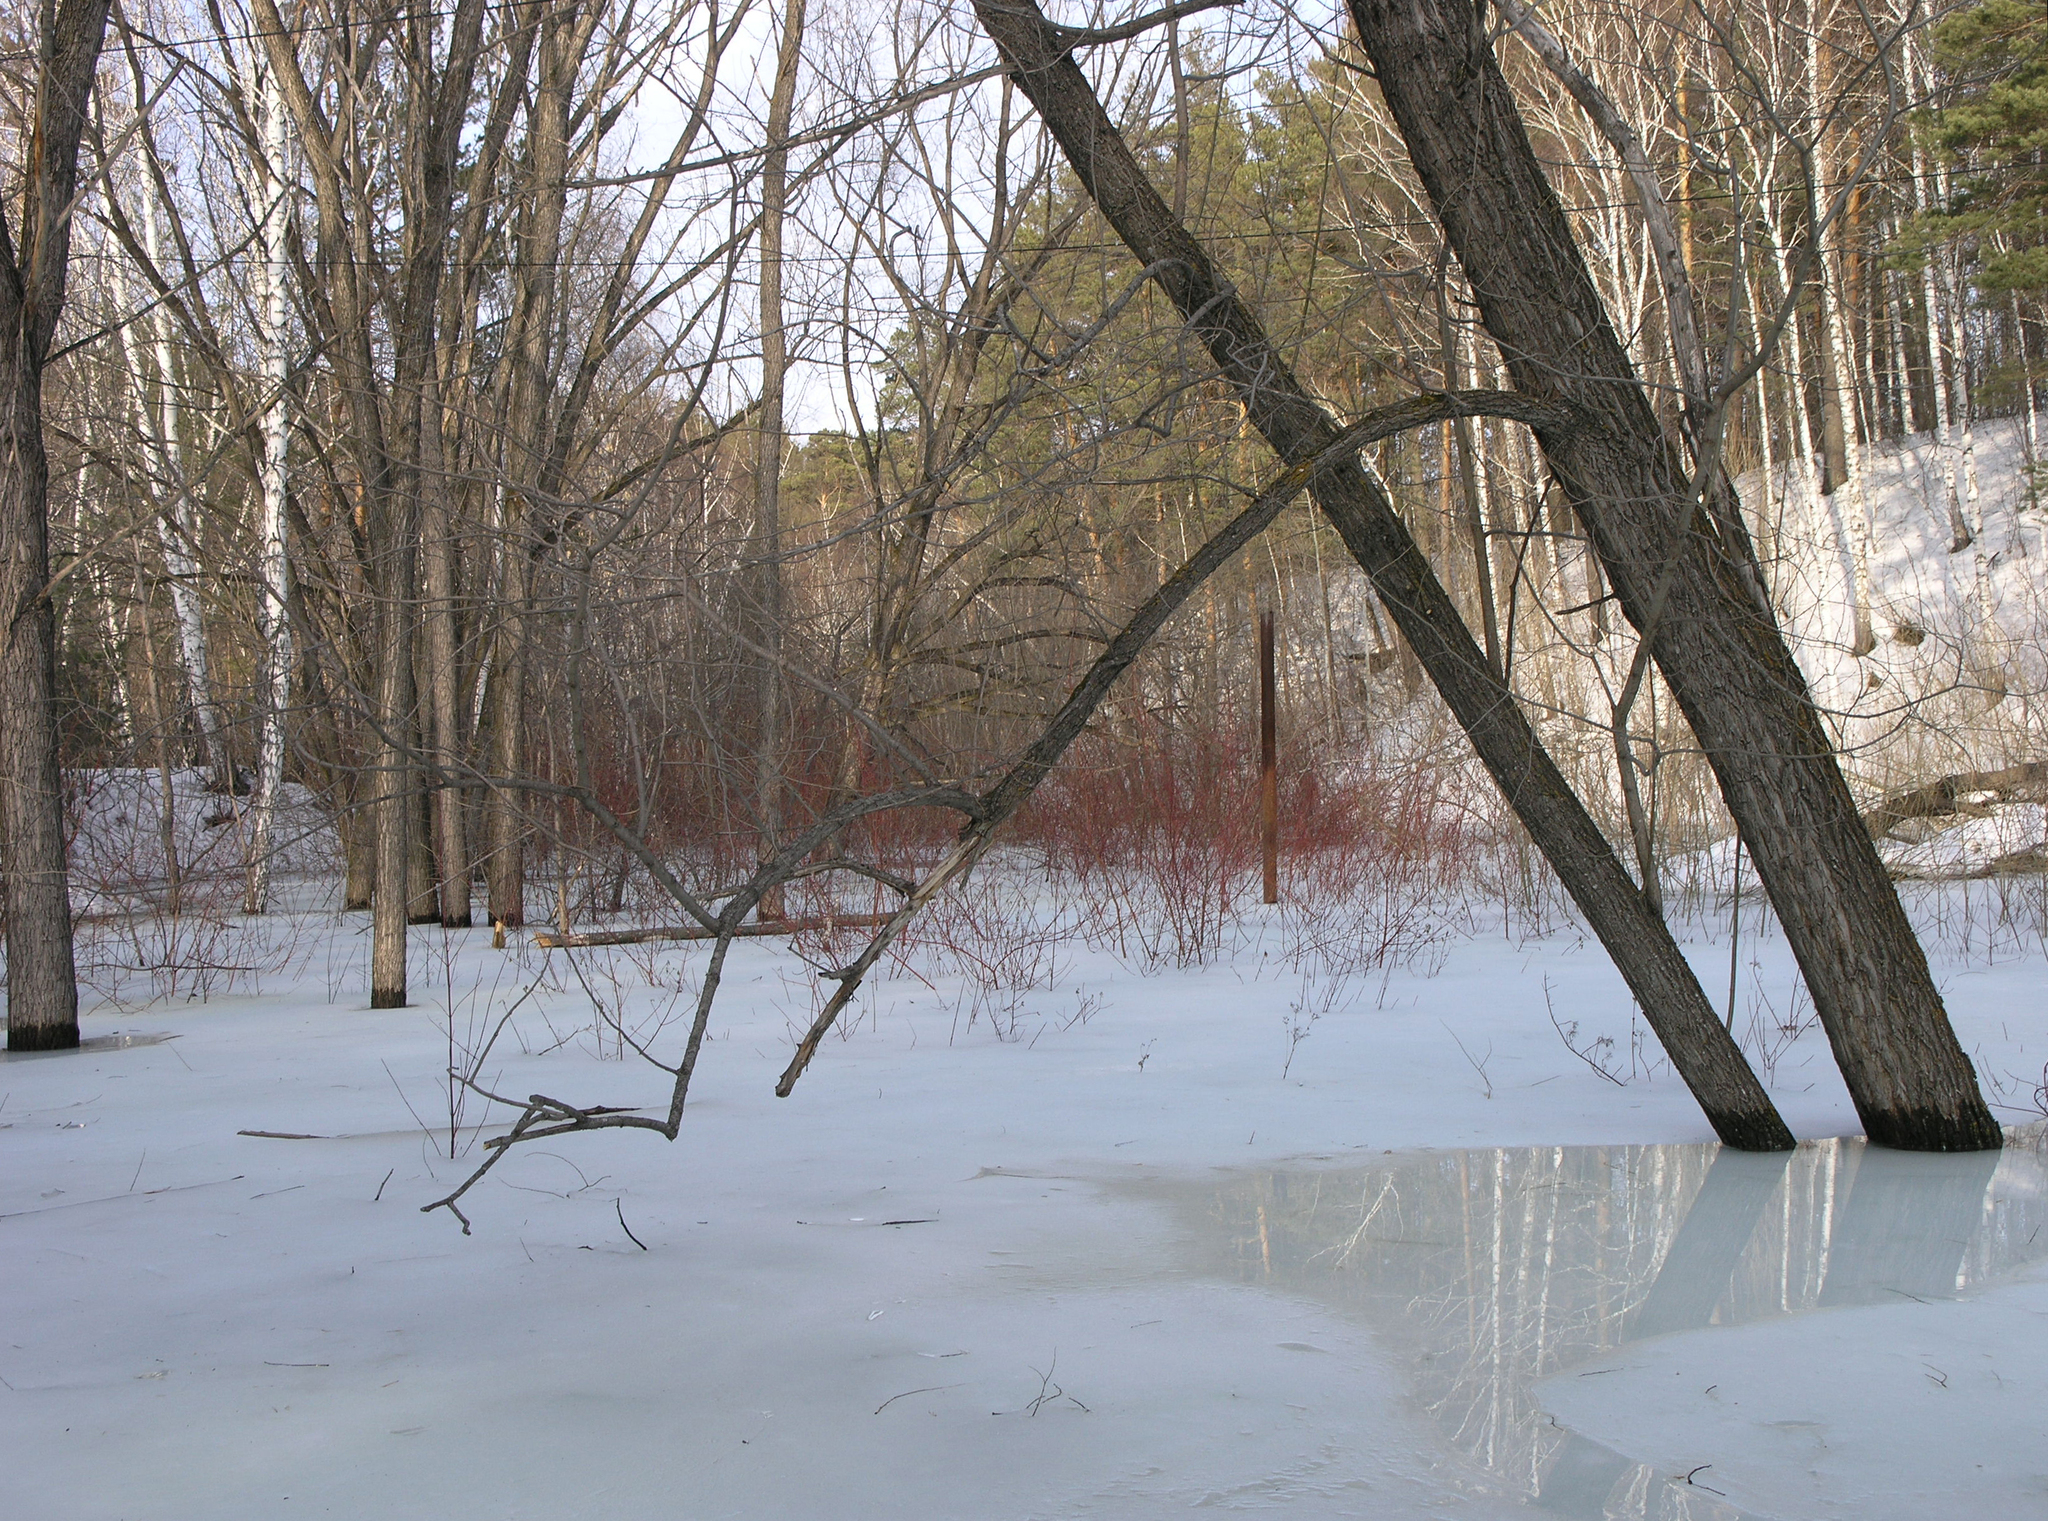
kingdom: Plantae
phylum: Tracheophyta
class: Magnoliopsida
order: Cornales
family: Cornaceae
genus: Cornus
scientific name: Cornus alba
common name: White dogwood
